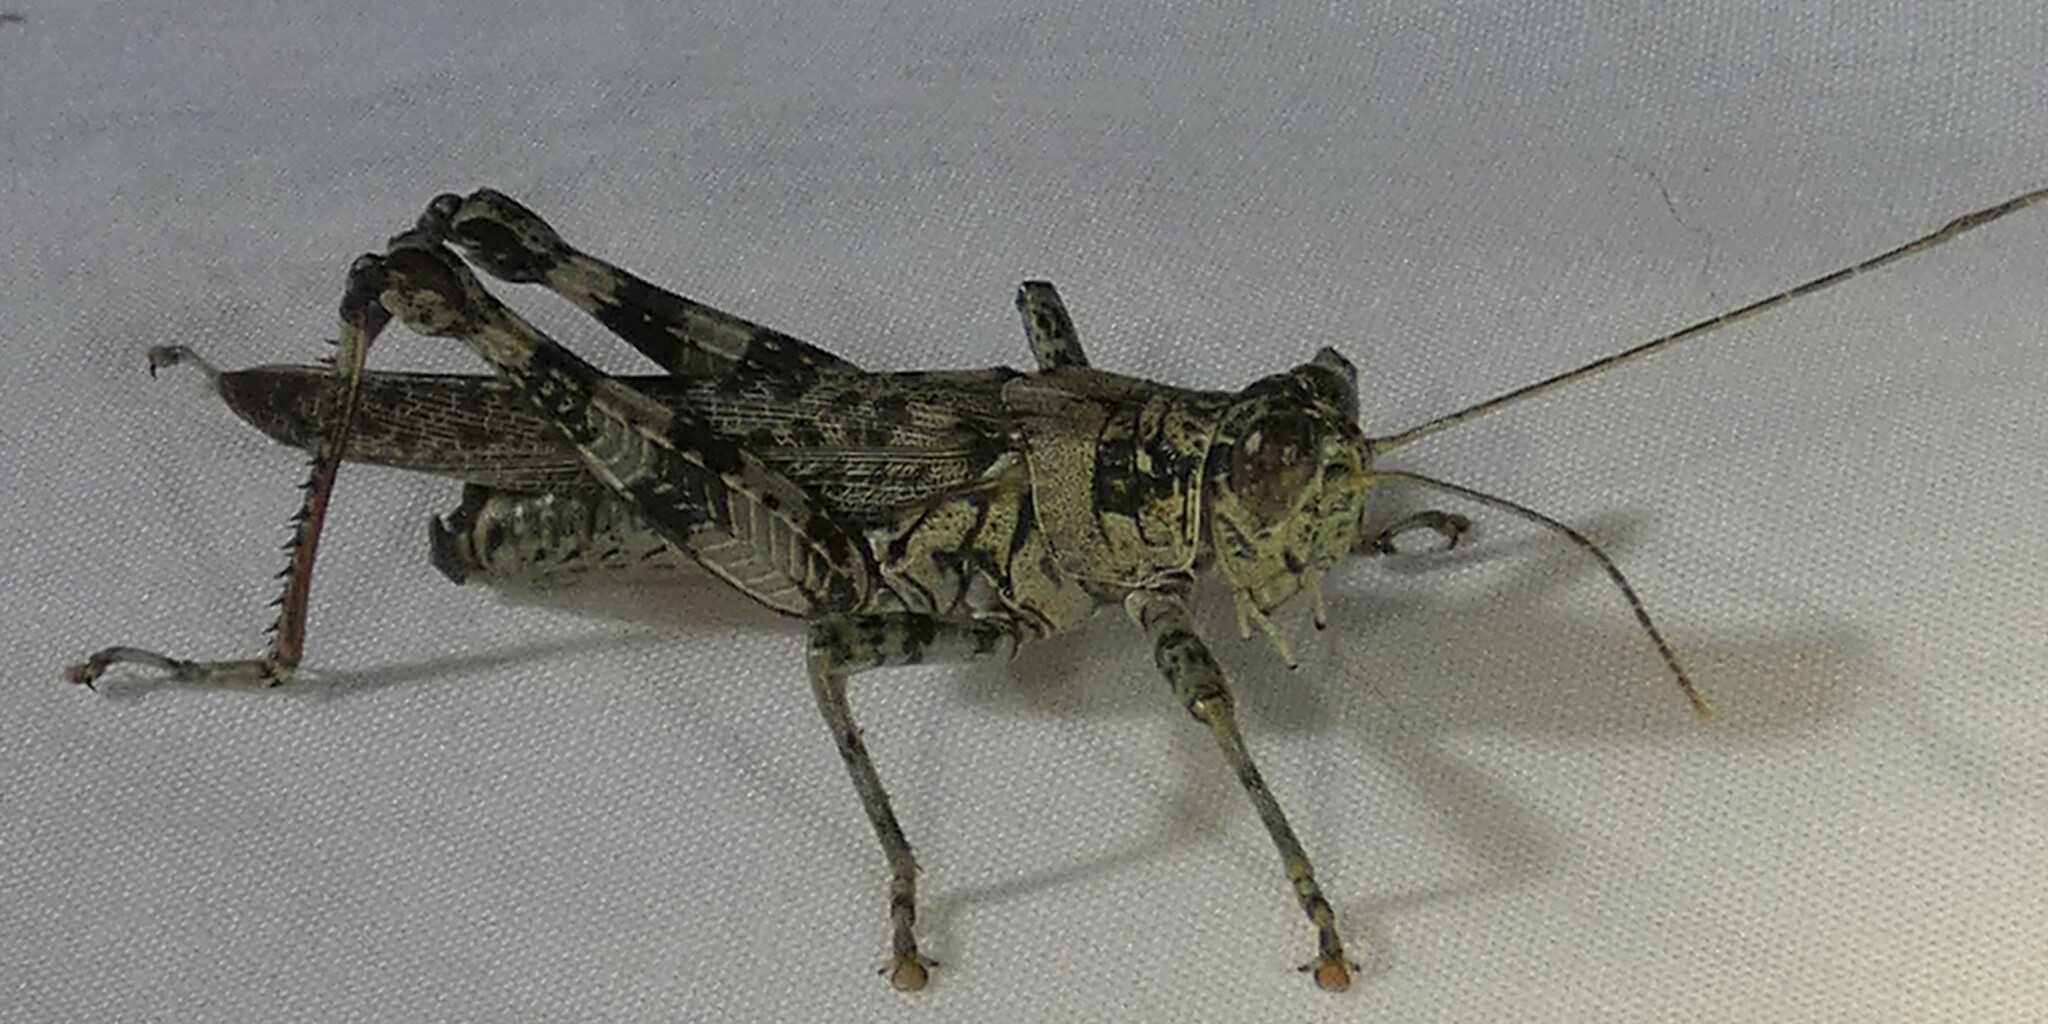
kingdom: Animalia
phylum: Arthropoda
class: Insecta
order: Orthoptera
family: Acrididae
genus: Melanoplus
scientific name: Melanoplus punctulatus
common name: Pine-tree spur-throat grasshopper
